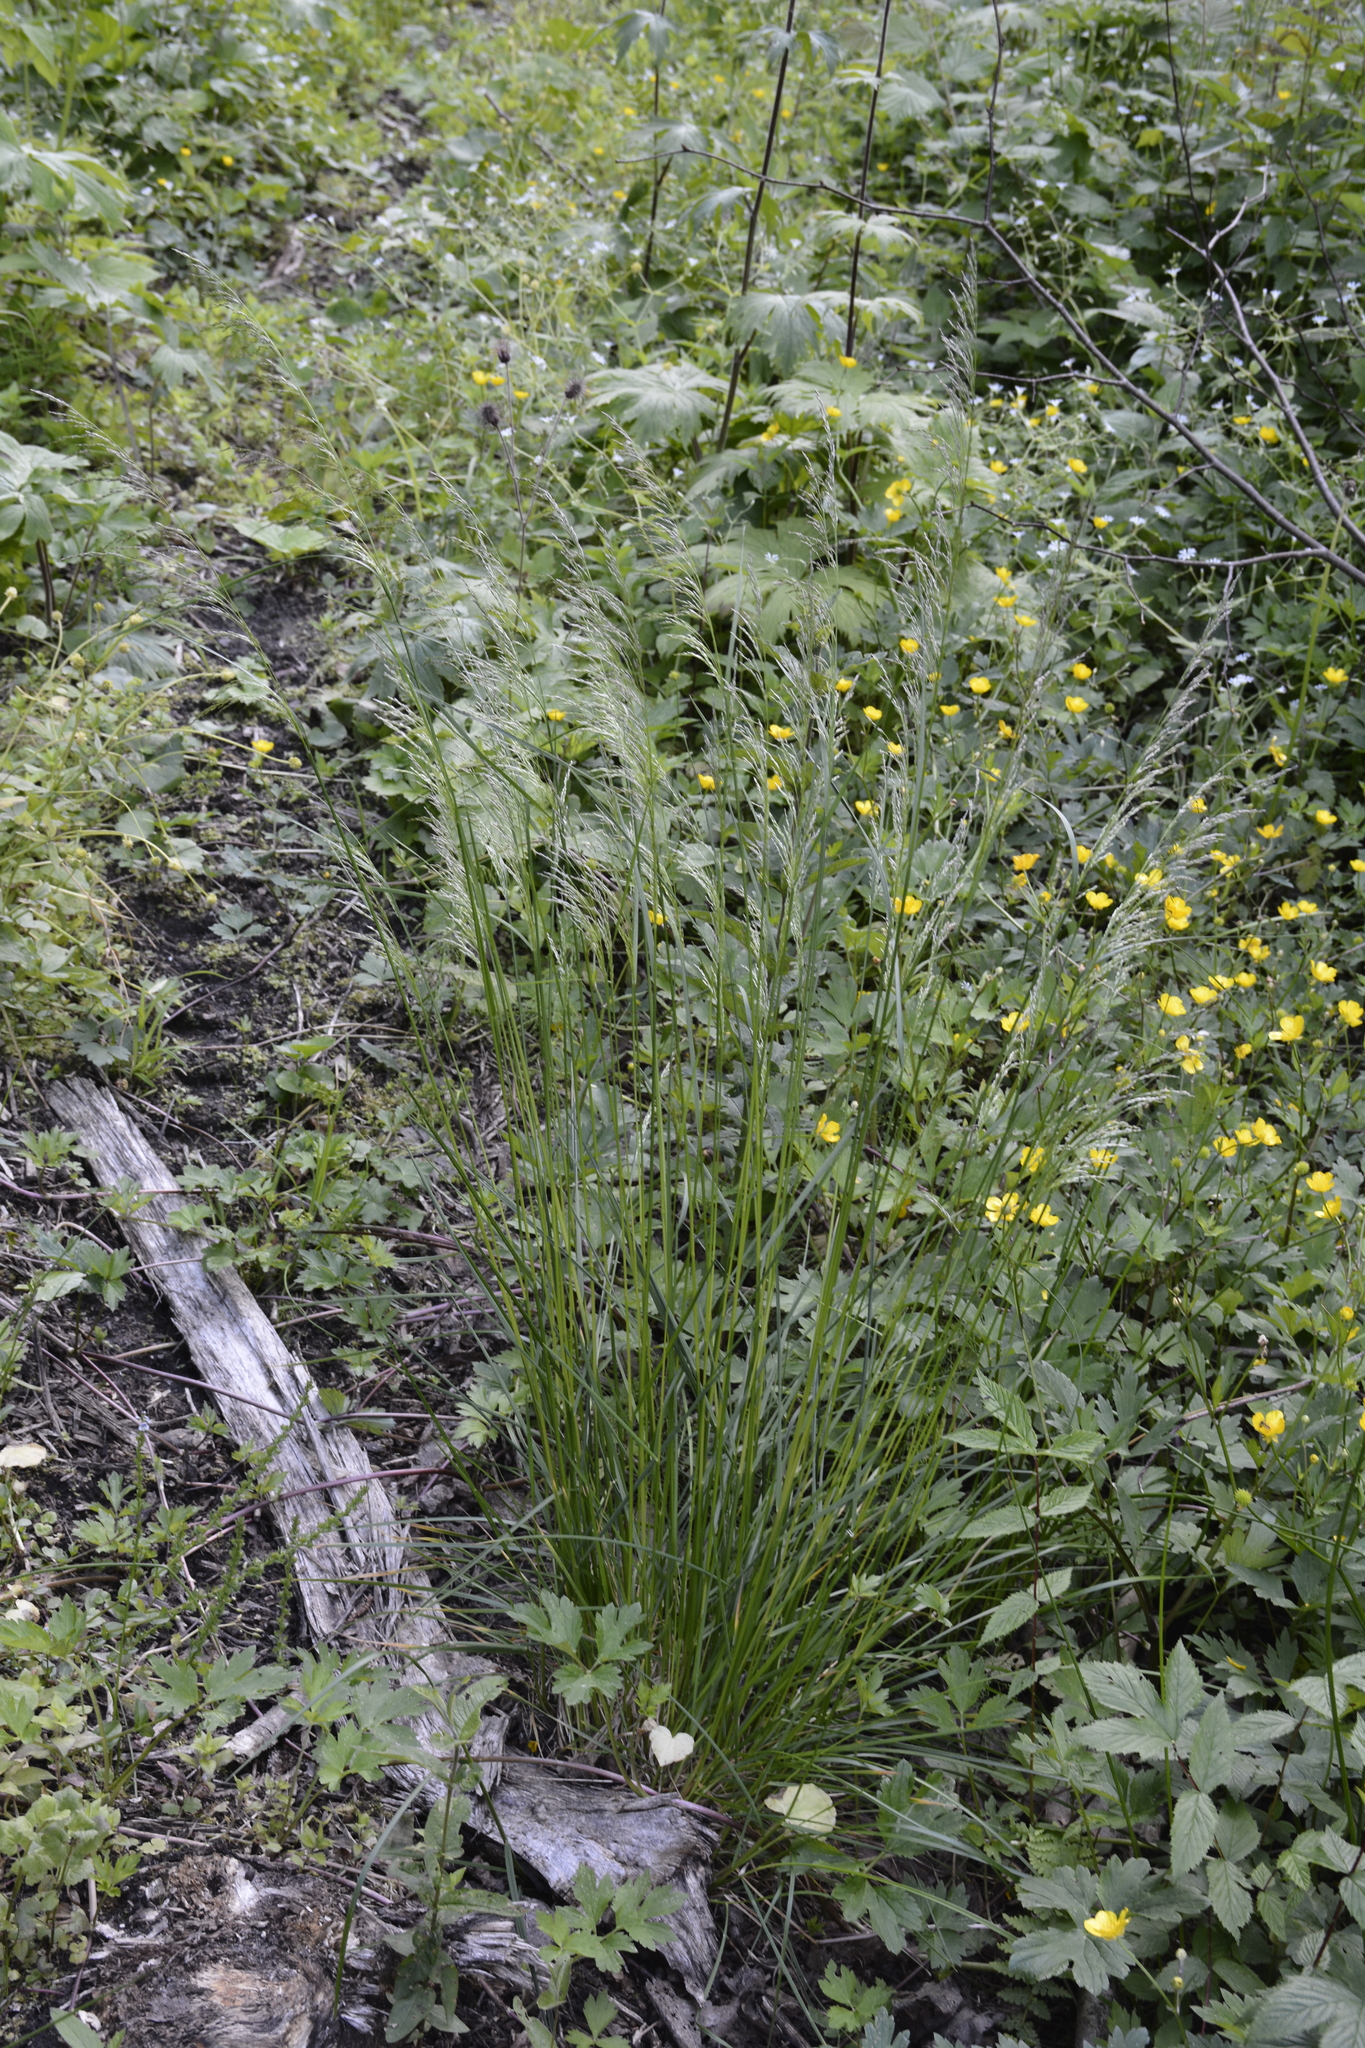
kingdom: Plantae
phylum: Tracheophyta
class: Liliopsida
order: Poales
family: Poaceae
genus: Deschampsia
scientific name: Deschampsia cespitosa
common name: Tufted hair-grass
